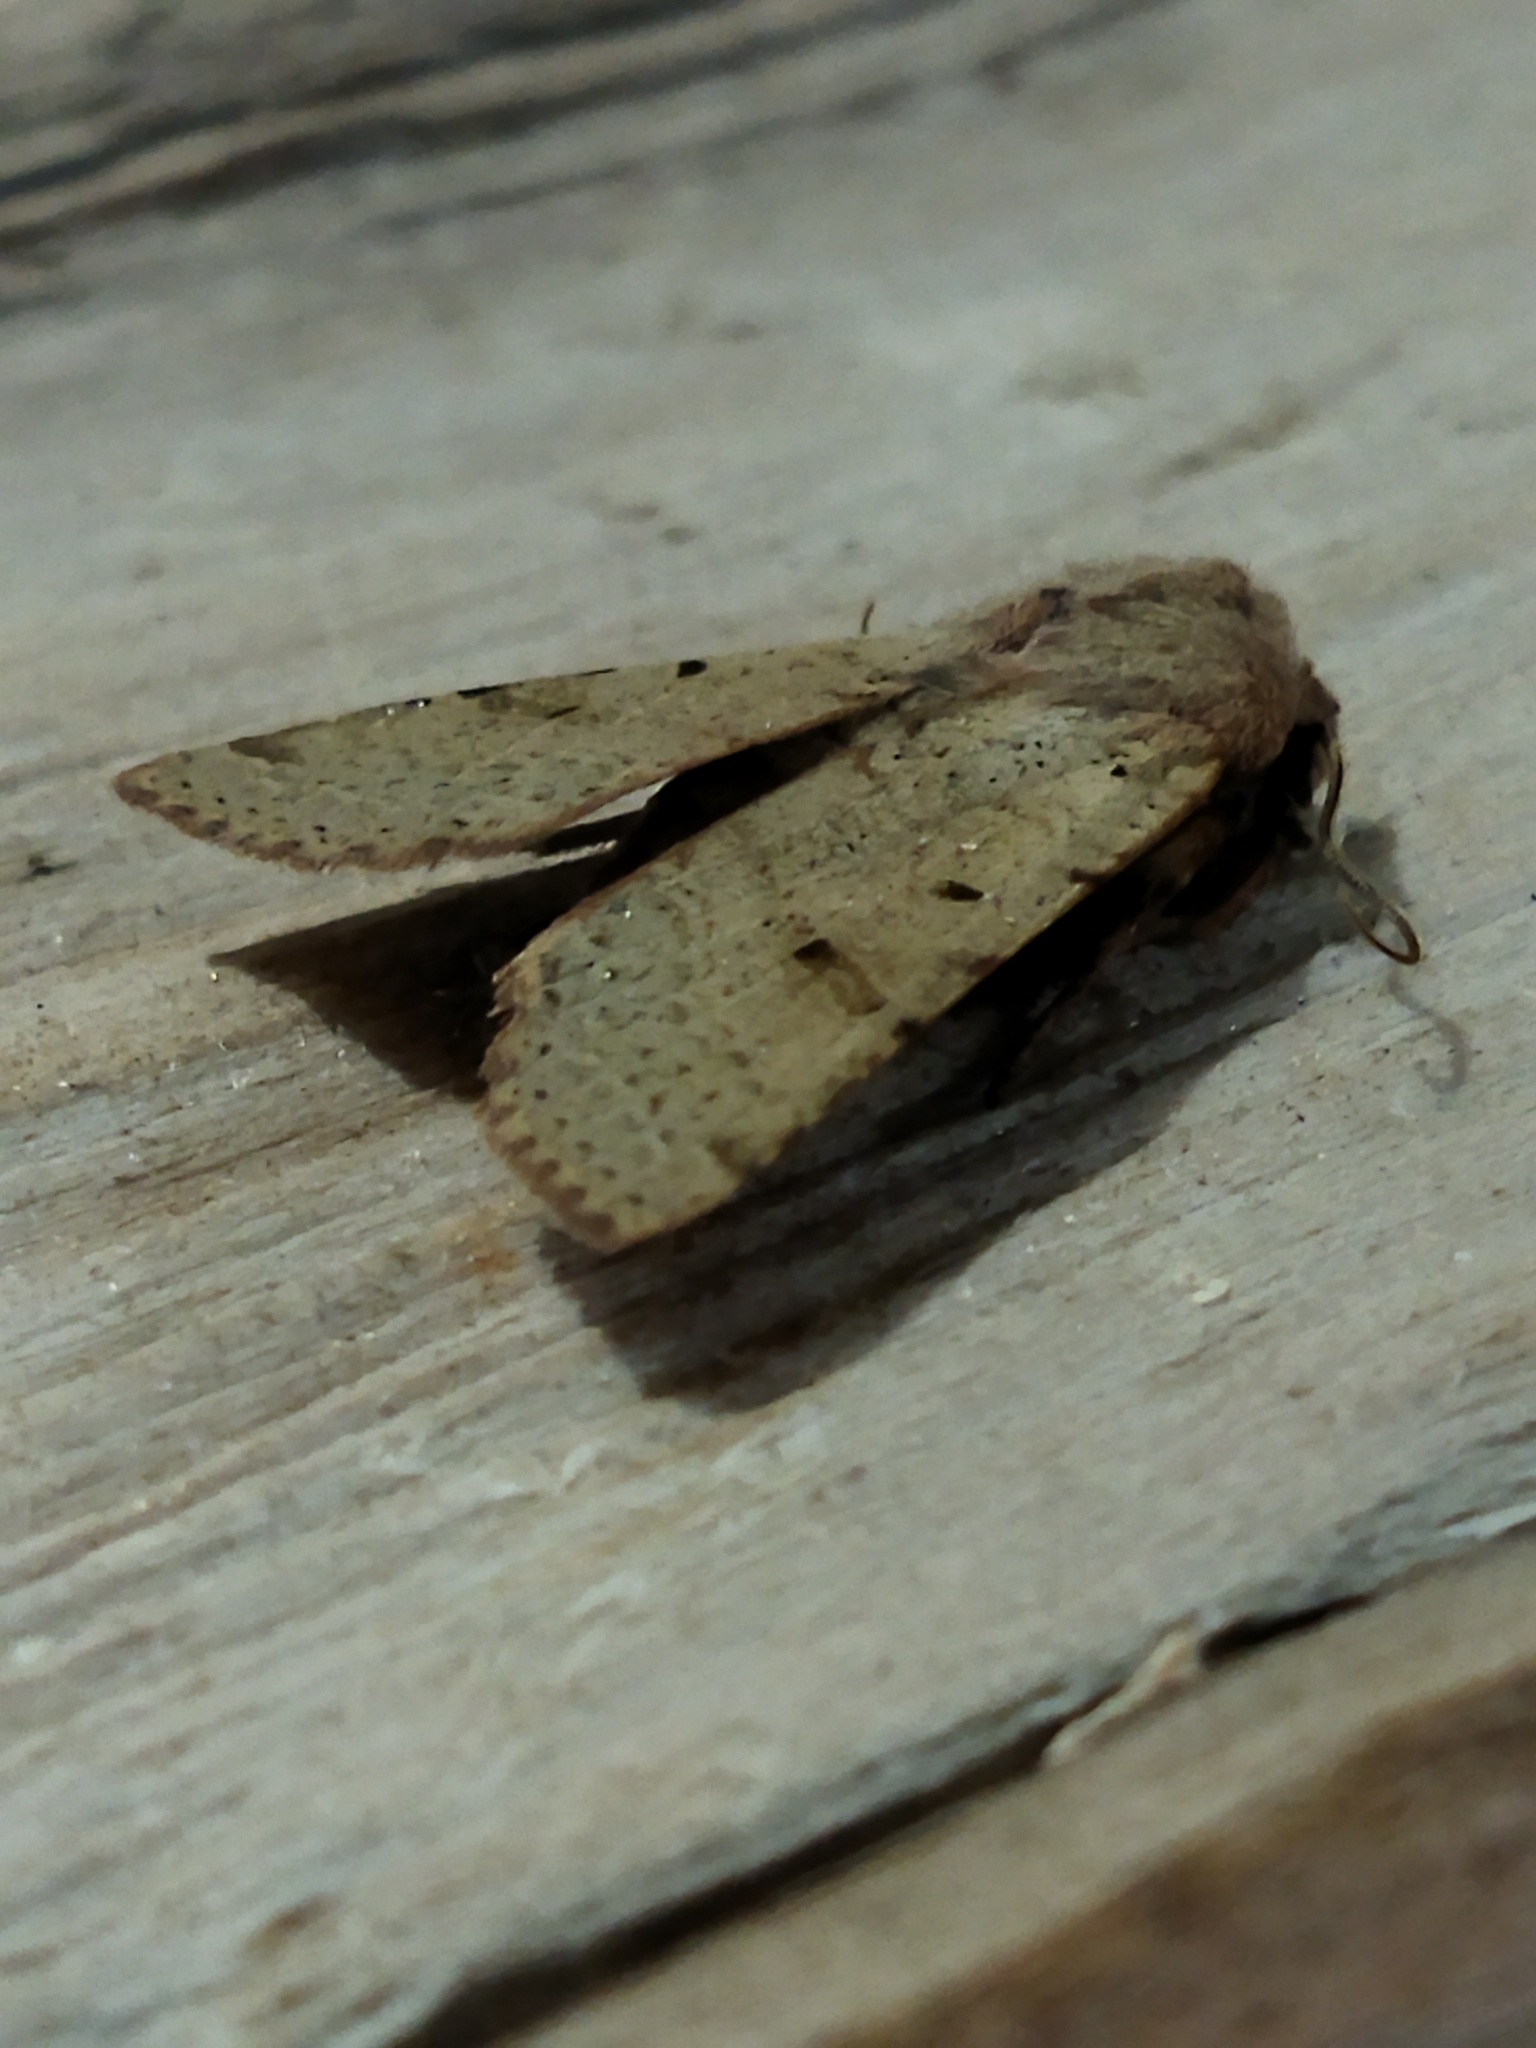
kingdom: Animalia
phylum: Arthropoda
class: Insecta
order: Lepidoptera
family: Noctuidae
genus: Agrochola
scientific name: Agrochola lychnidis
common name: Beaded chestnut
